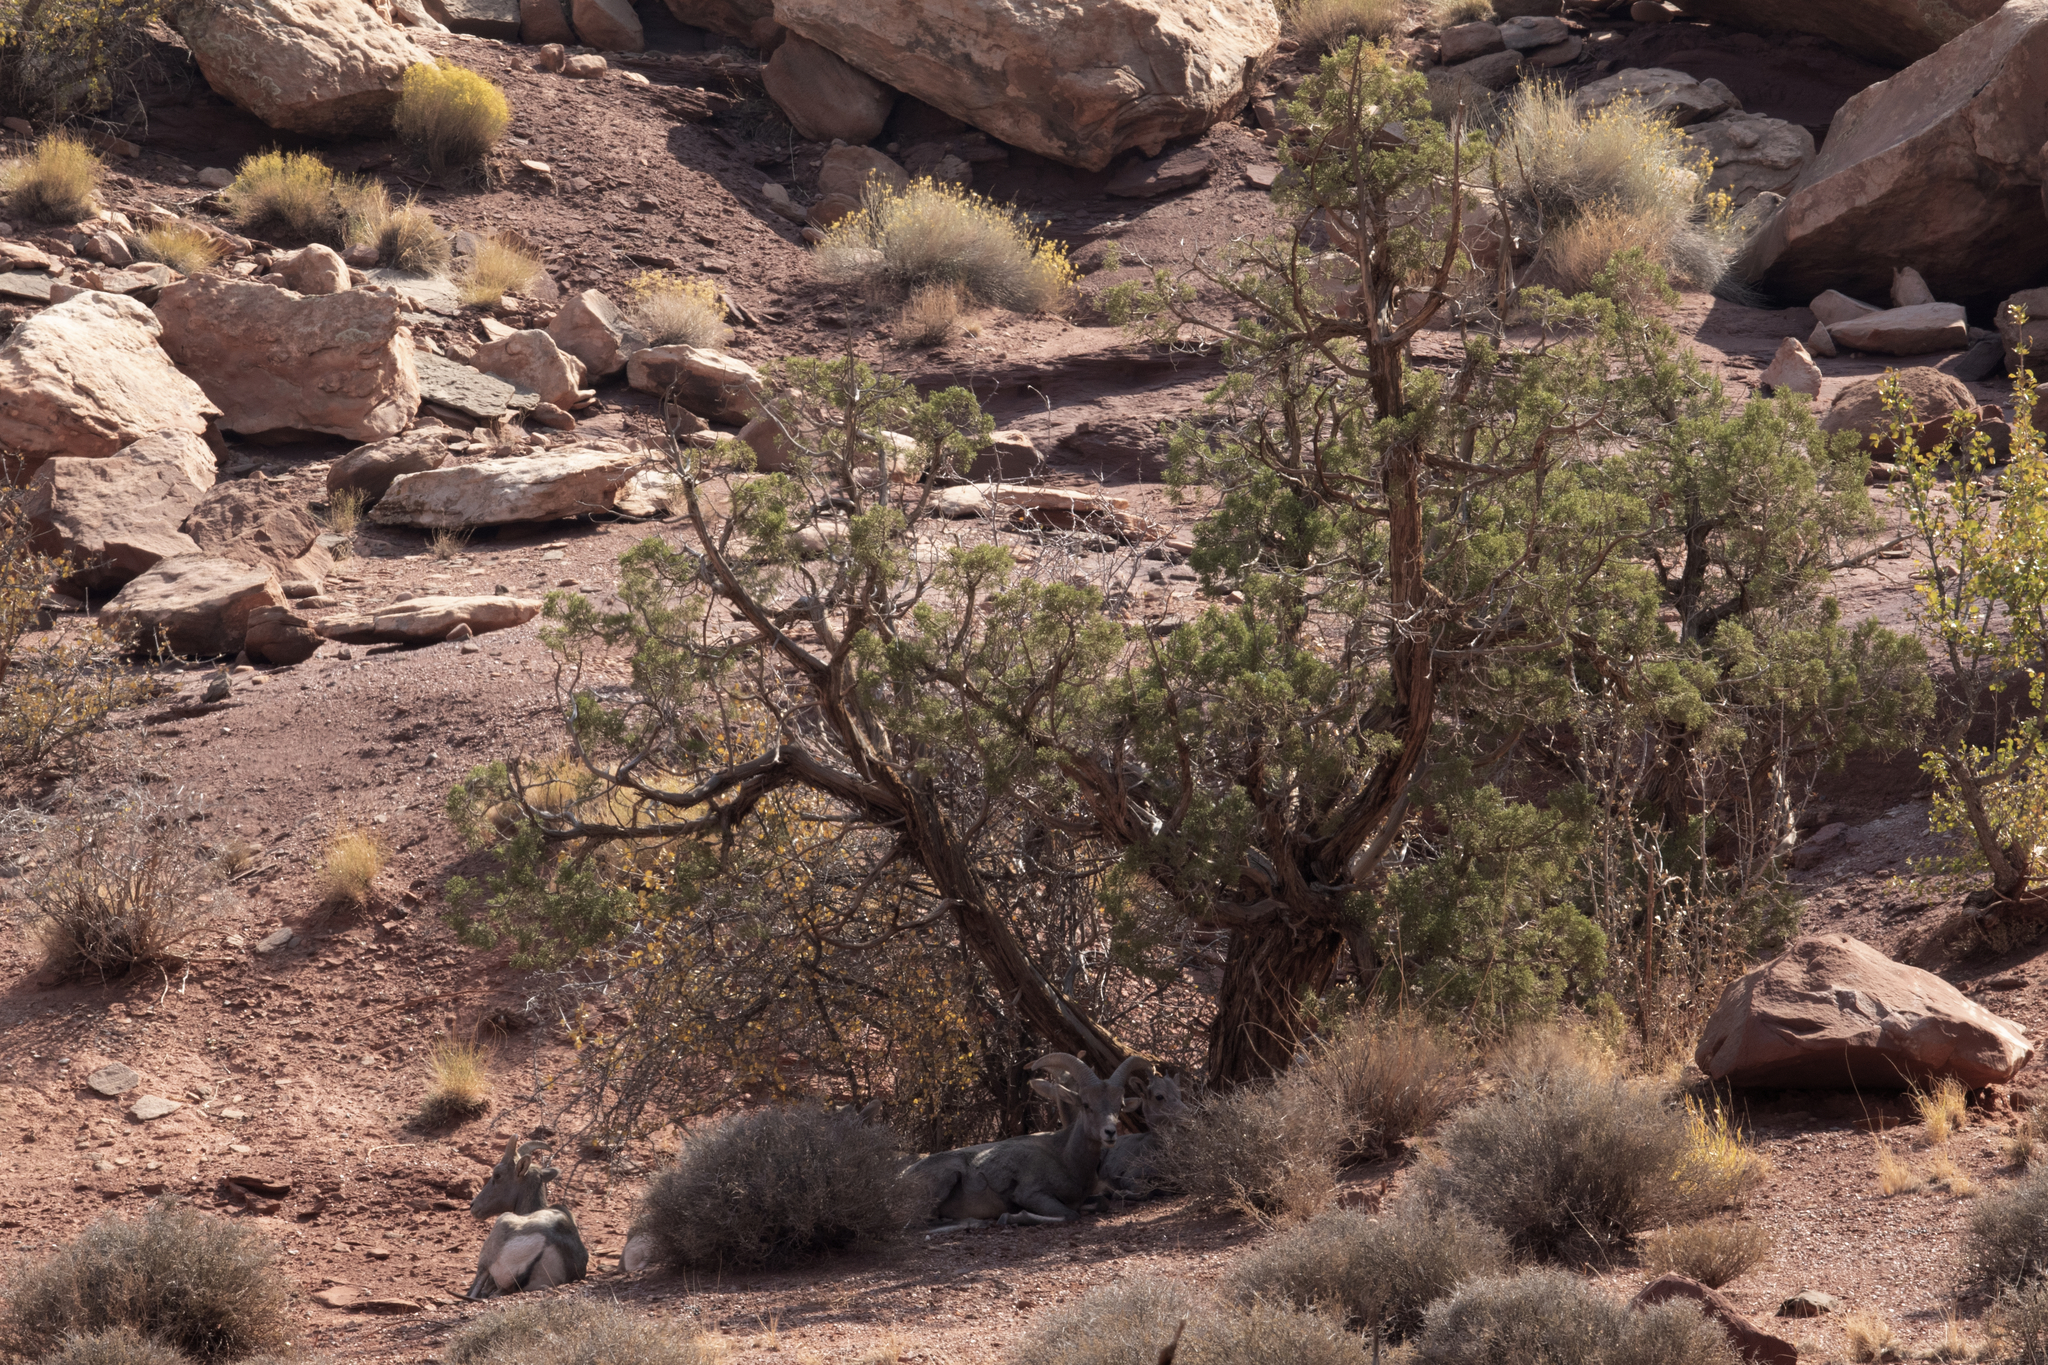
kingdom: Animalia
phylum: Chordata
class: Mammalia
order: Artiodactyla
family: Bovidae
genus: Ovis
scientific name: Ovis canadensis
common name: Bighorn sheep
